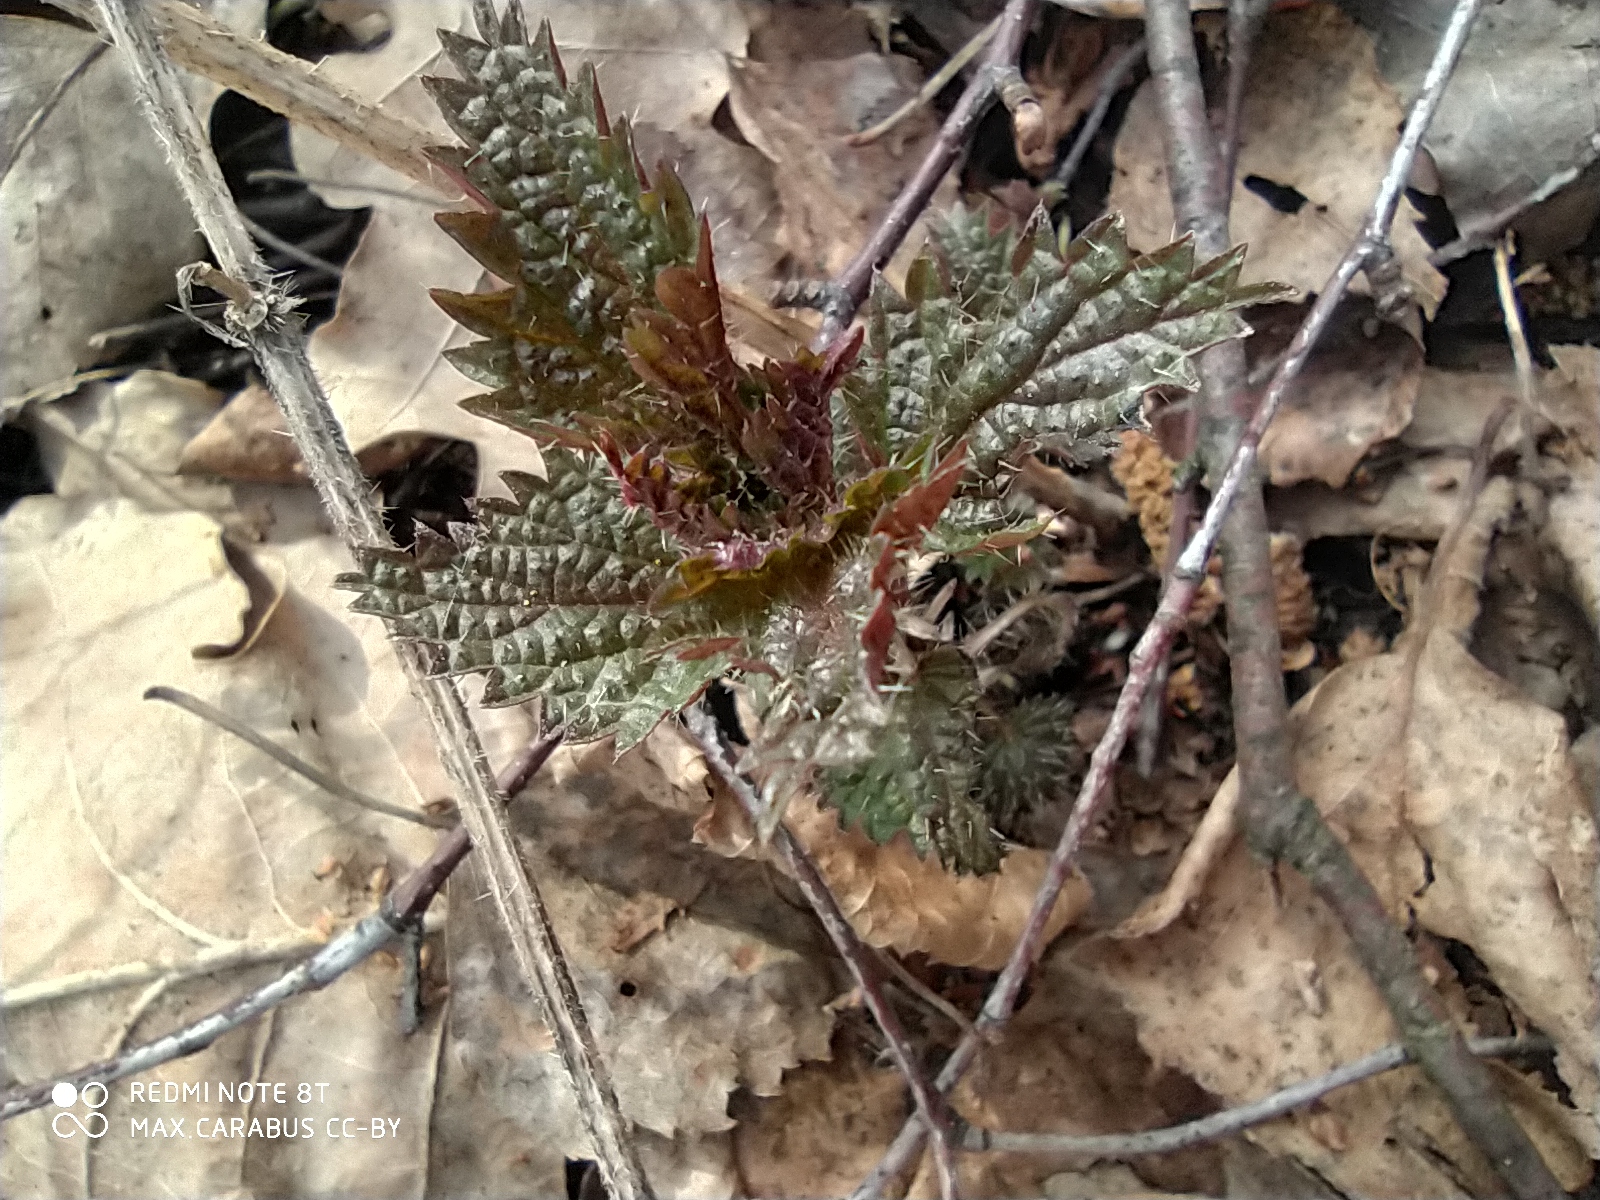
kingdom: Plantae
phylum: Tracheophyta
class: Magnoliopsida
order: Rosales
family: Urticaceae
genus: Urtica
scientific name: Urtica dioica
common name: Common nettle
